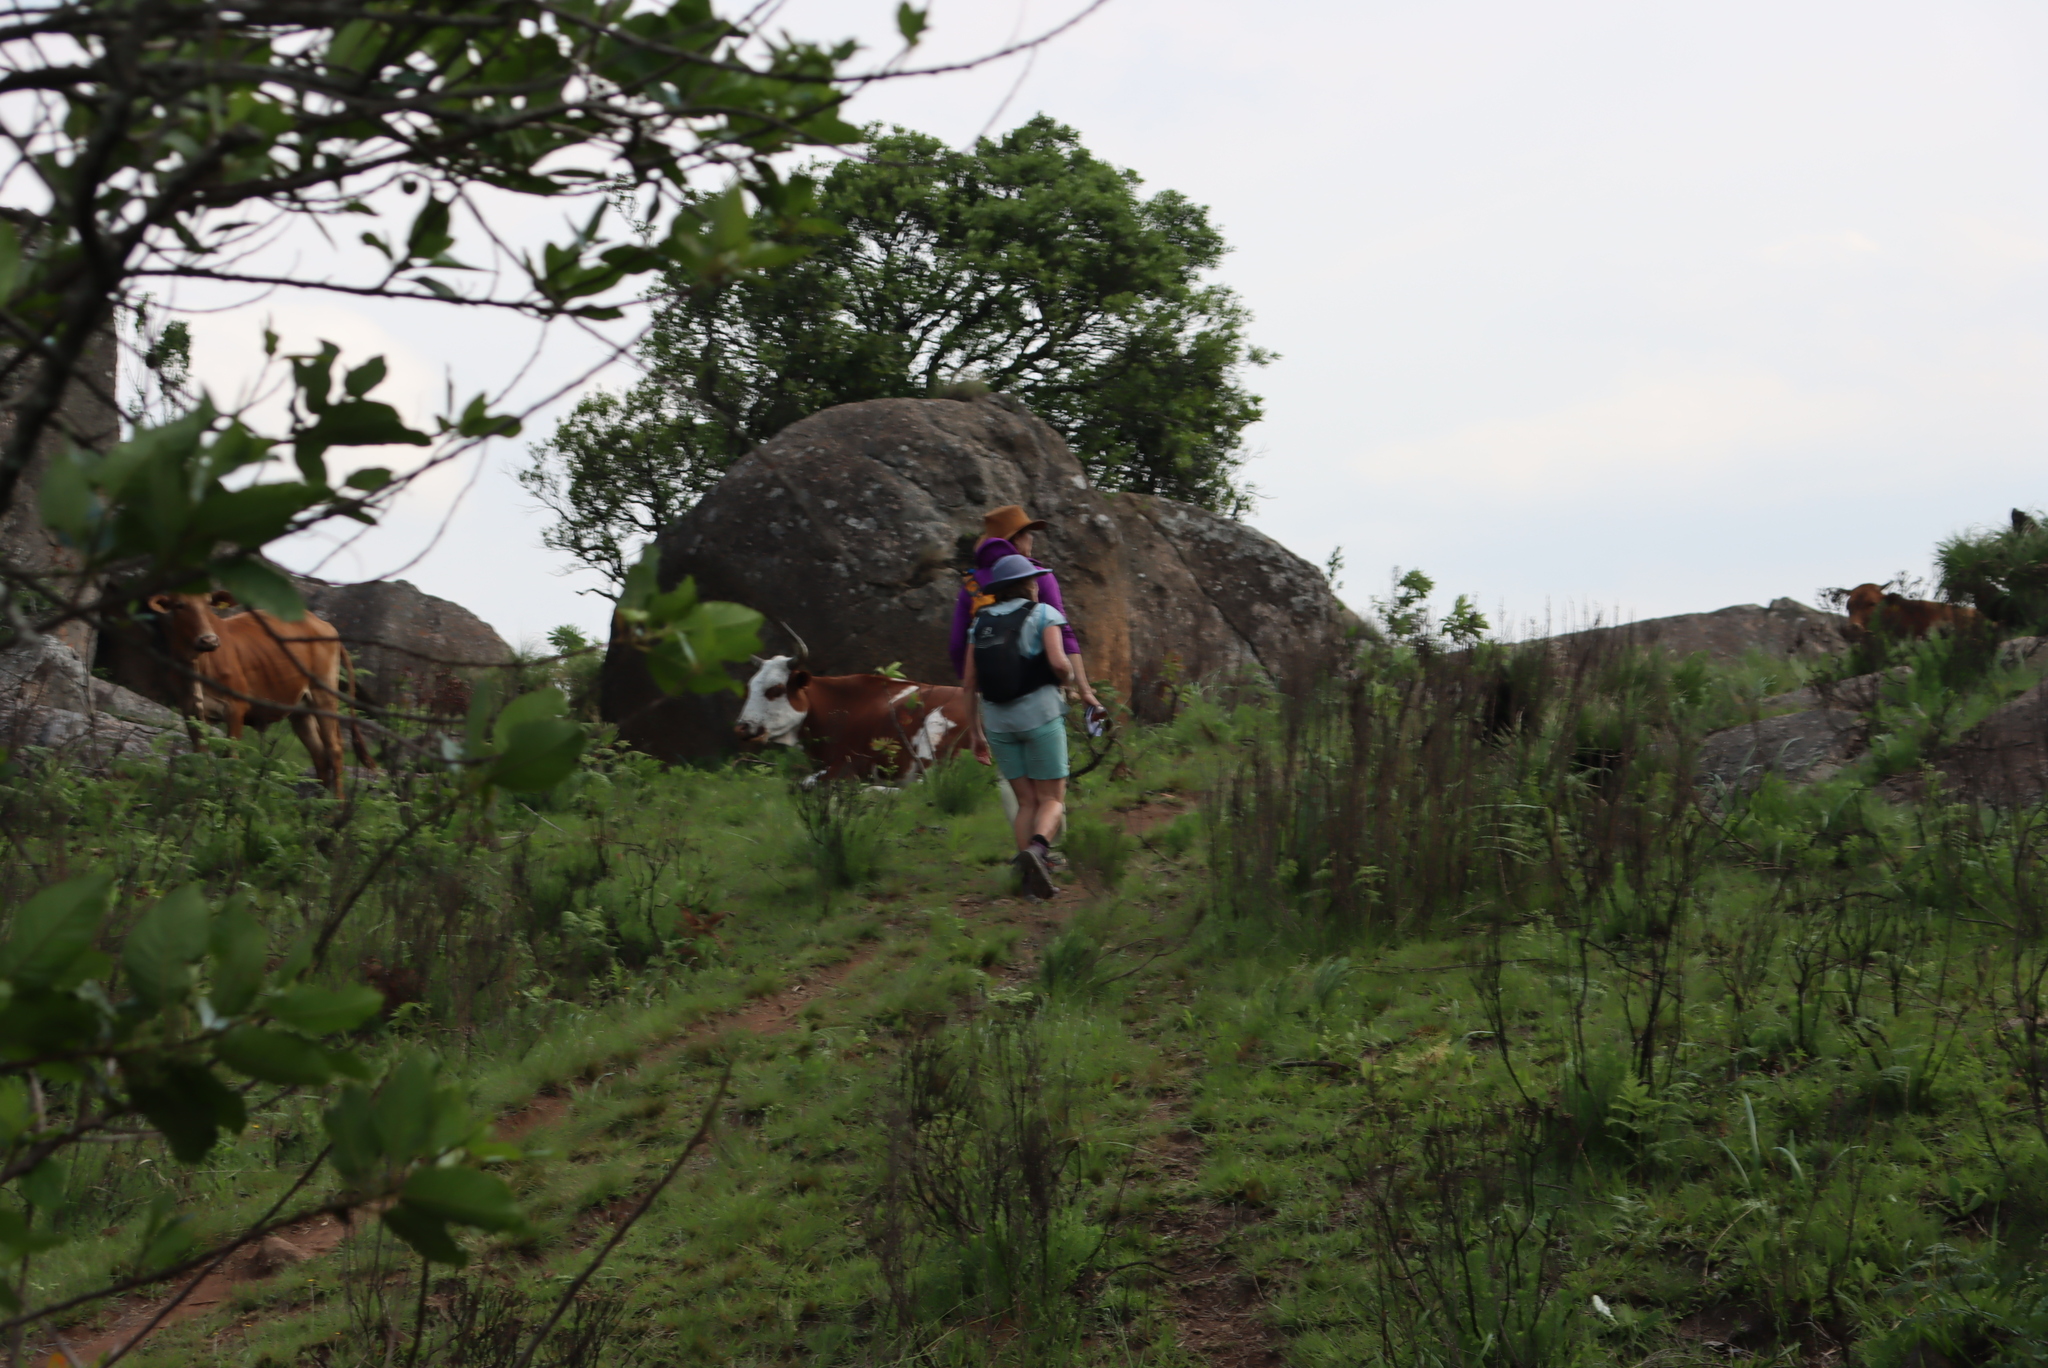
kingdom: Animalia
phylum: Chordata
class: Mammalia
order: Artiodactyla
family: Bovidae
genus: Bos
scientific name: Bos taurus
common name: Domesticated cattle
